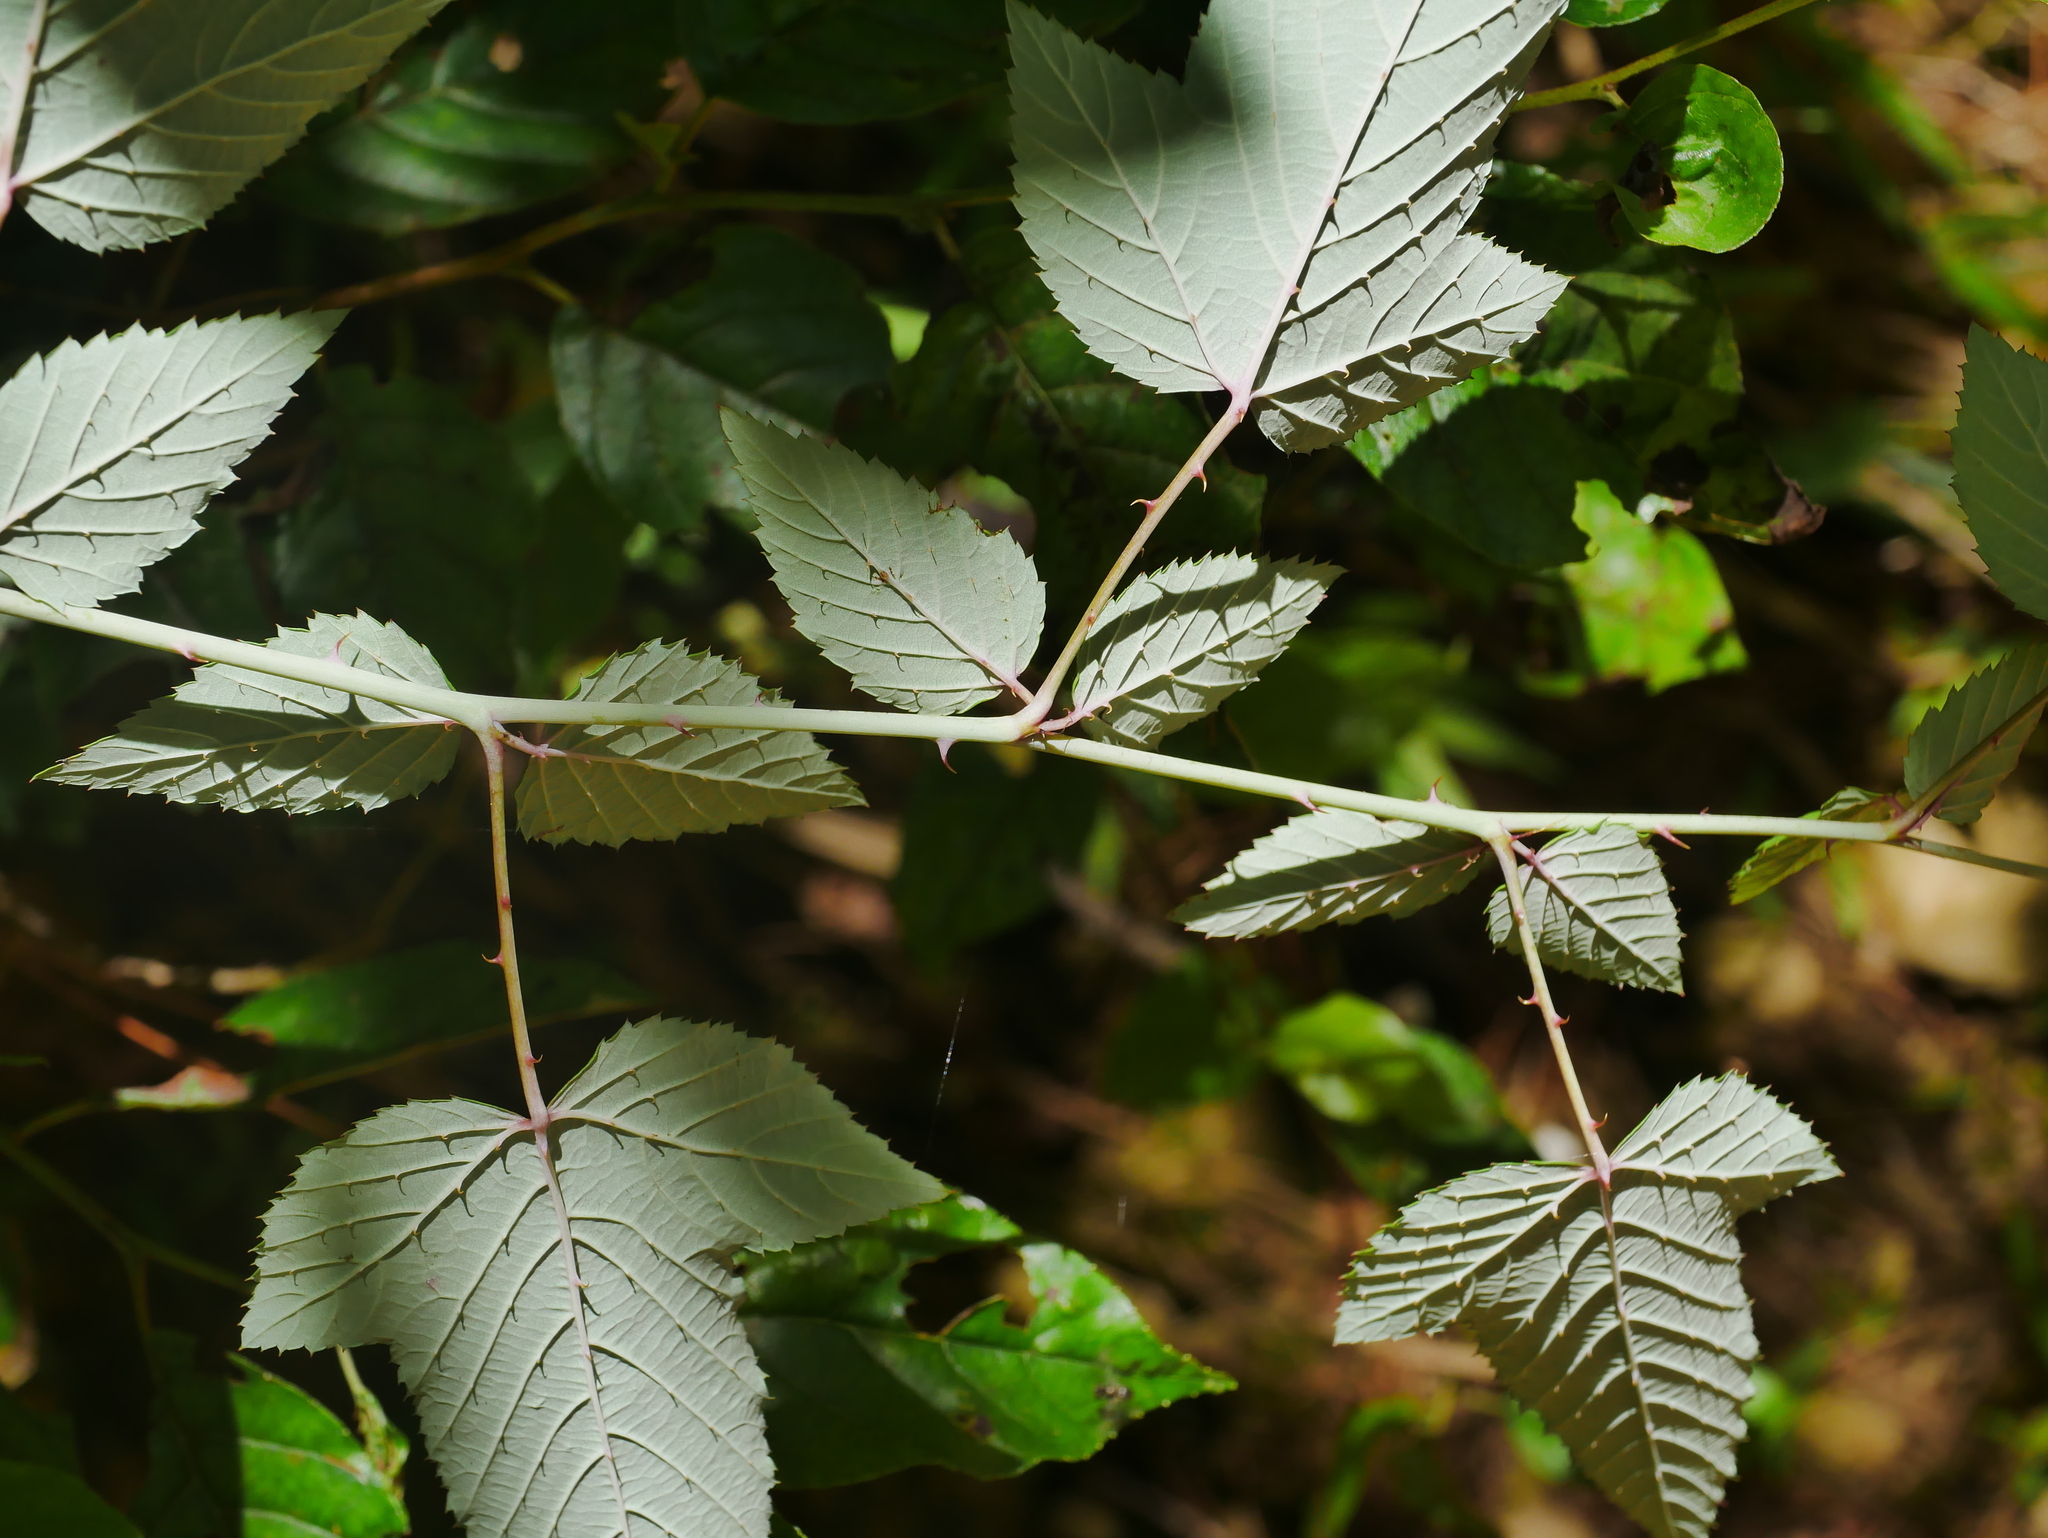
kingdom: Plantae
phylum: Tracheophyta
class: Magnoliopsida
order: Rosales
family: Rosaceae
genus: Rubus
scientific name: Rubus subcrataegifolius
